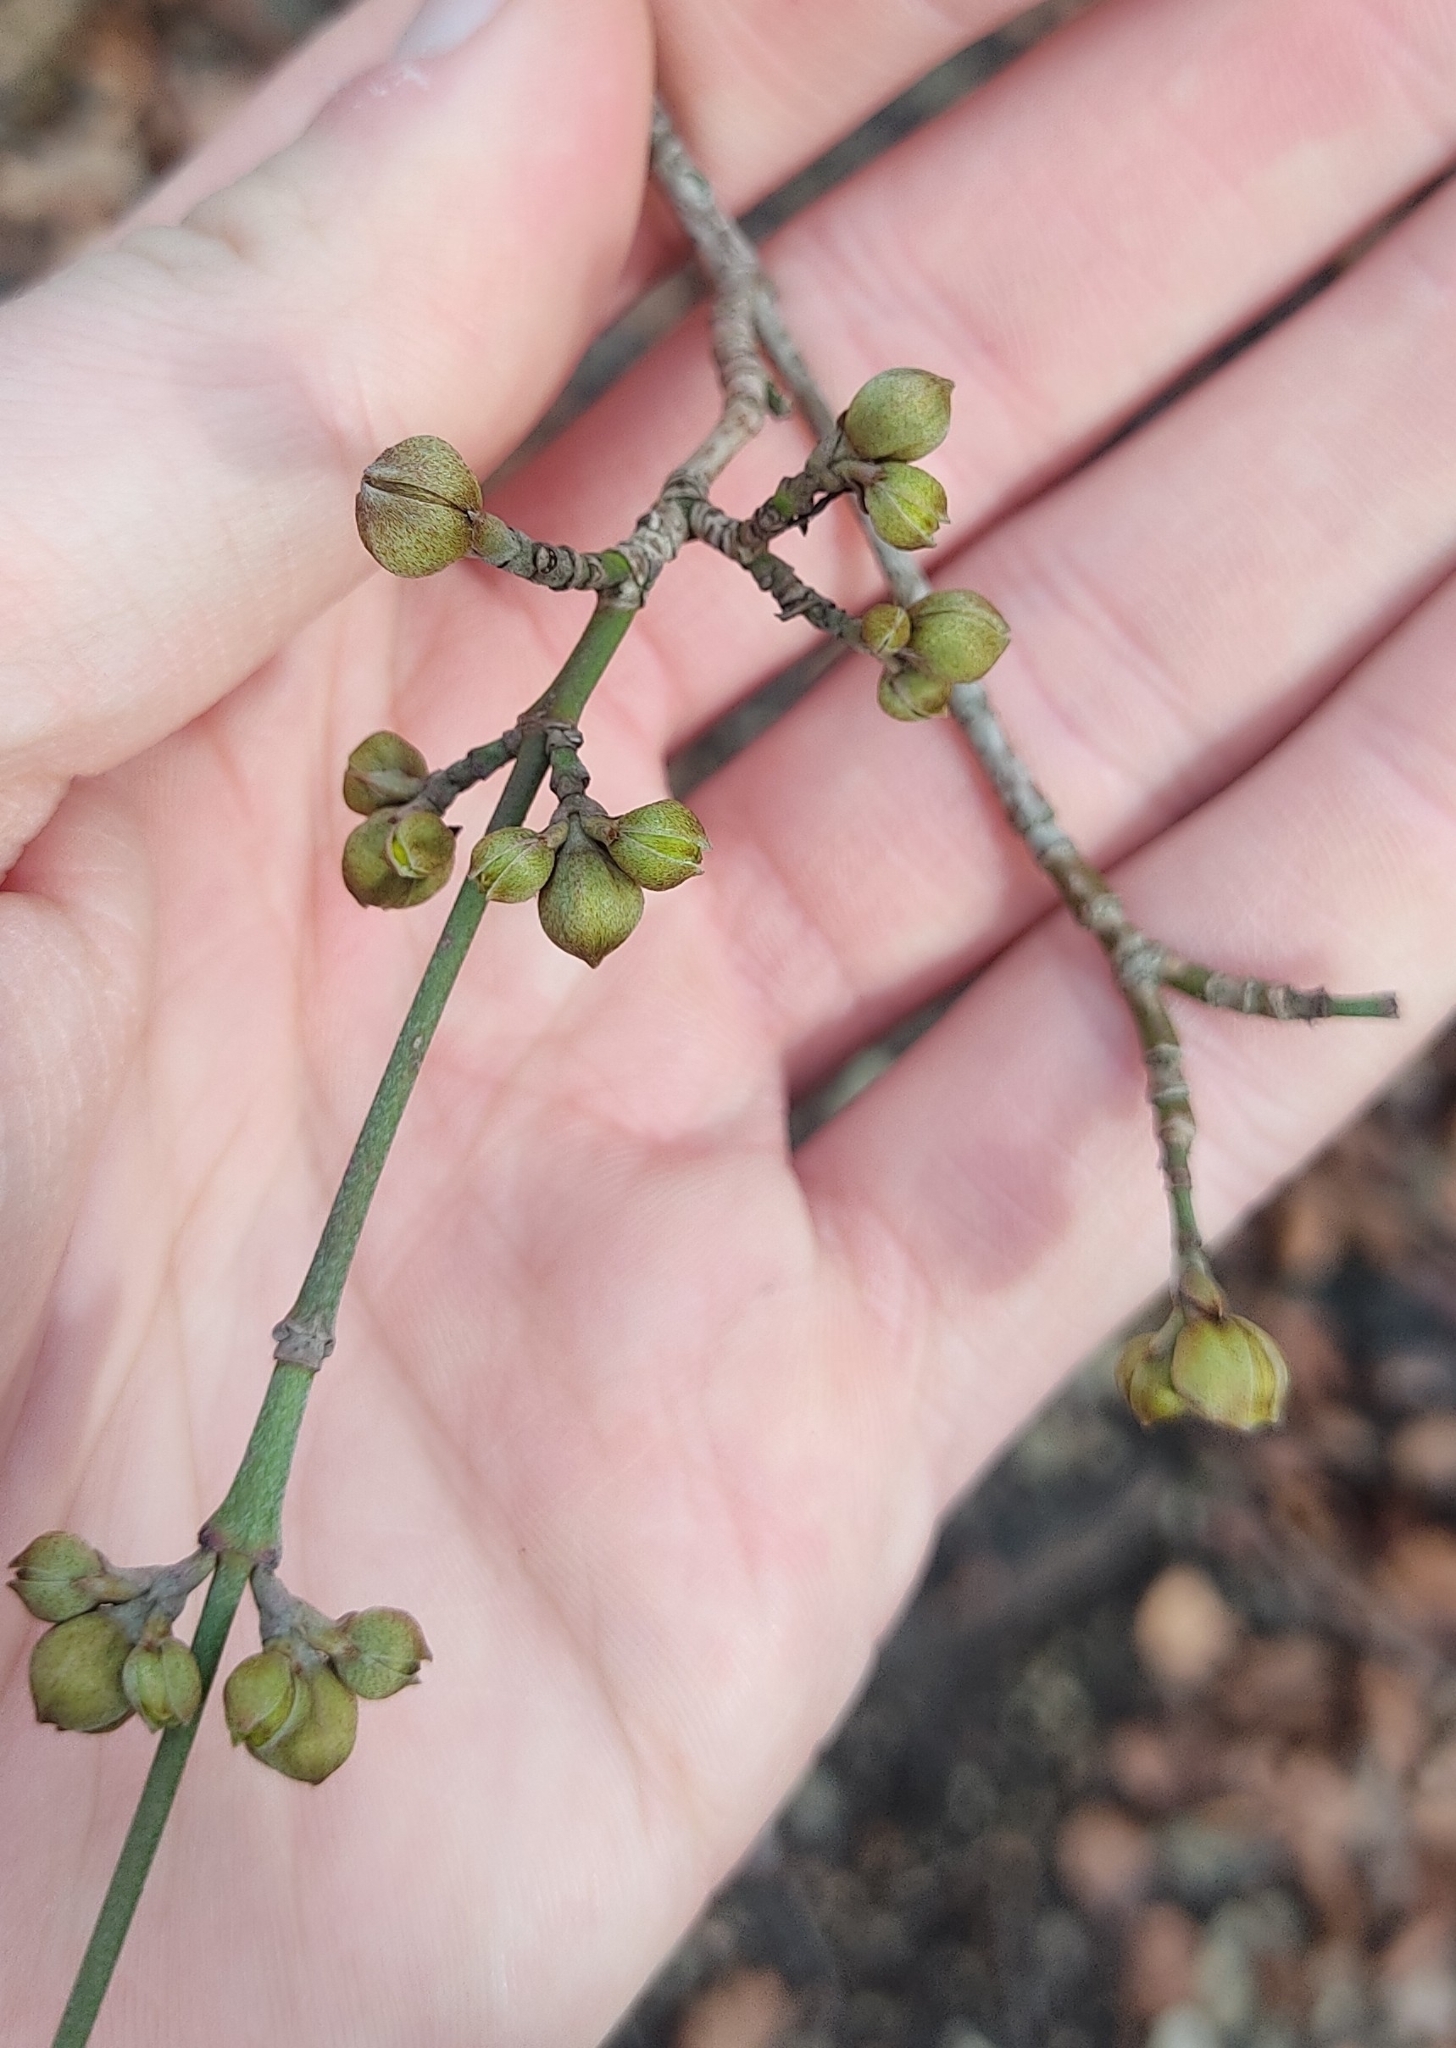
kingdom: Plantae
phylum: Tracheophyta
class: Magnoliopsida
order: Cornales
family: Cornaceae
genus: Cornus
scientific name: Cornus mas
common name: Cornelian-cherry
